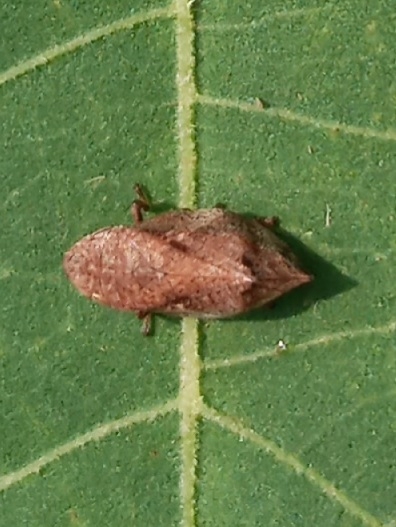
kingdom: Animalia
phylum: Arthropoda
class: Insecta
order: Hemiptera
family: Aphrophoridae
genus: Lepyronia
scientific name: Lepyronia quadrangularis
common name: Diamond-backed spittlebug
